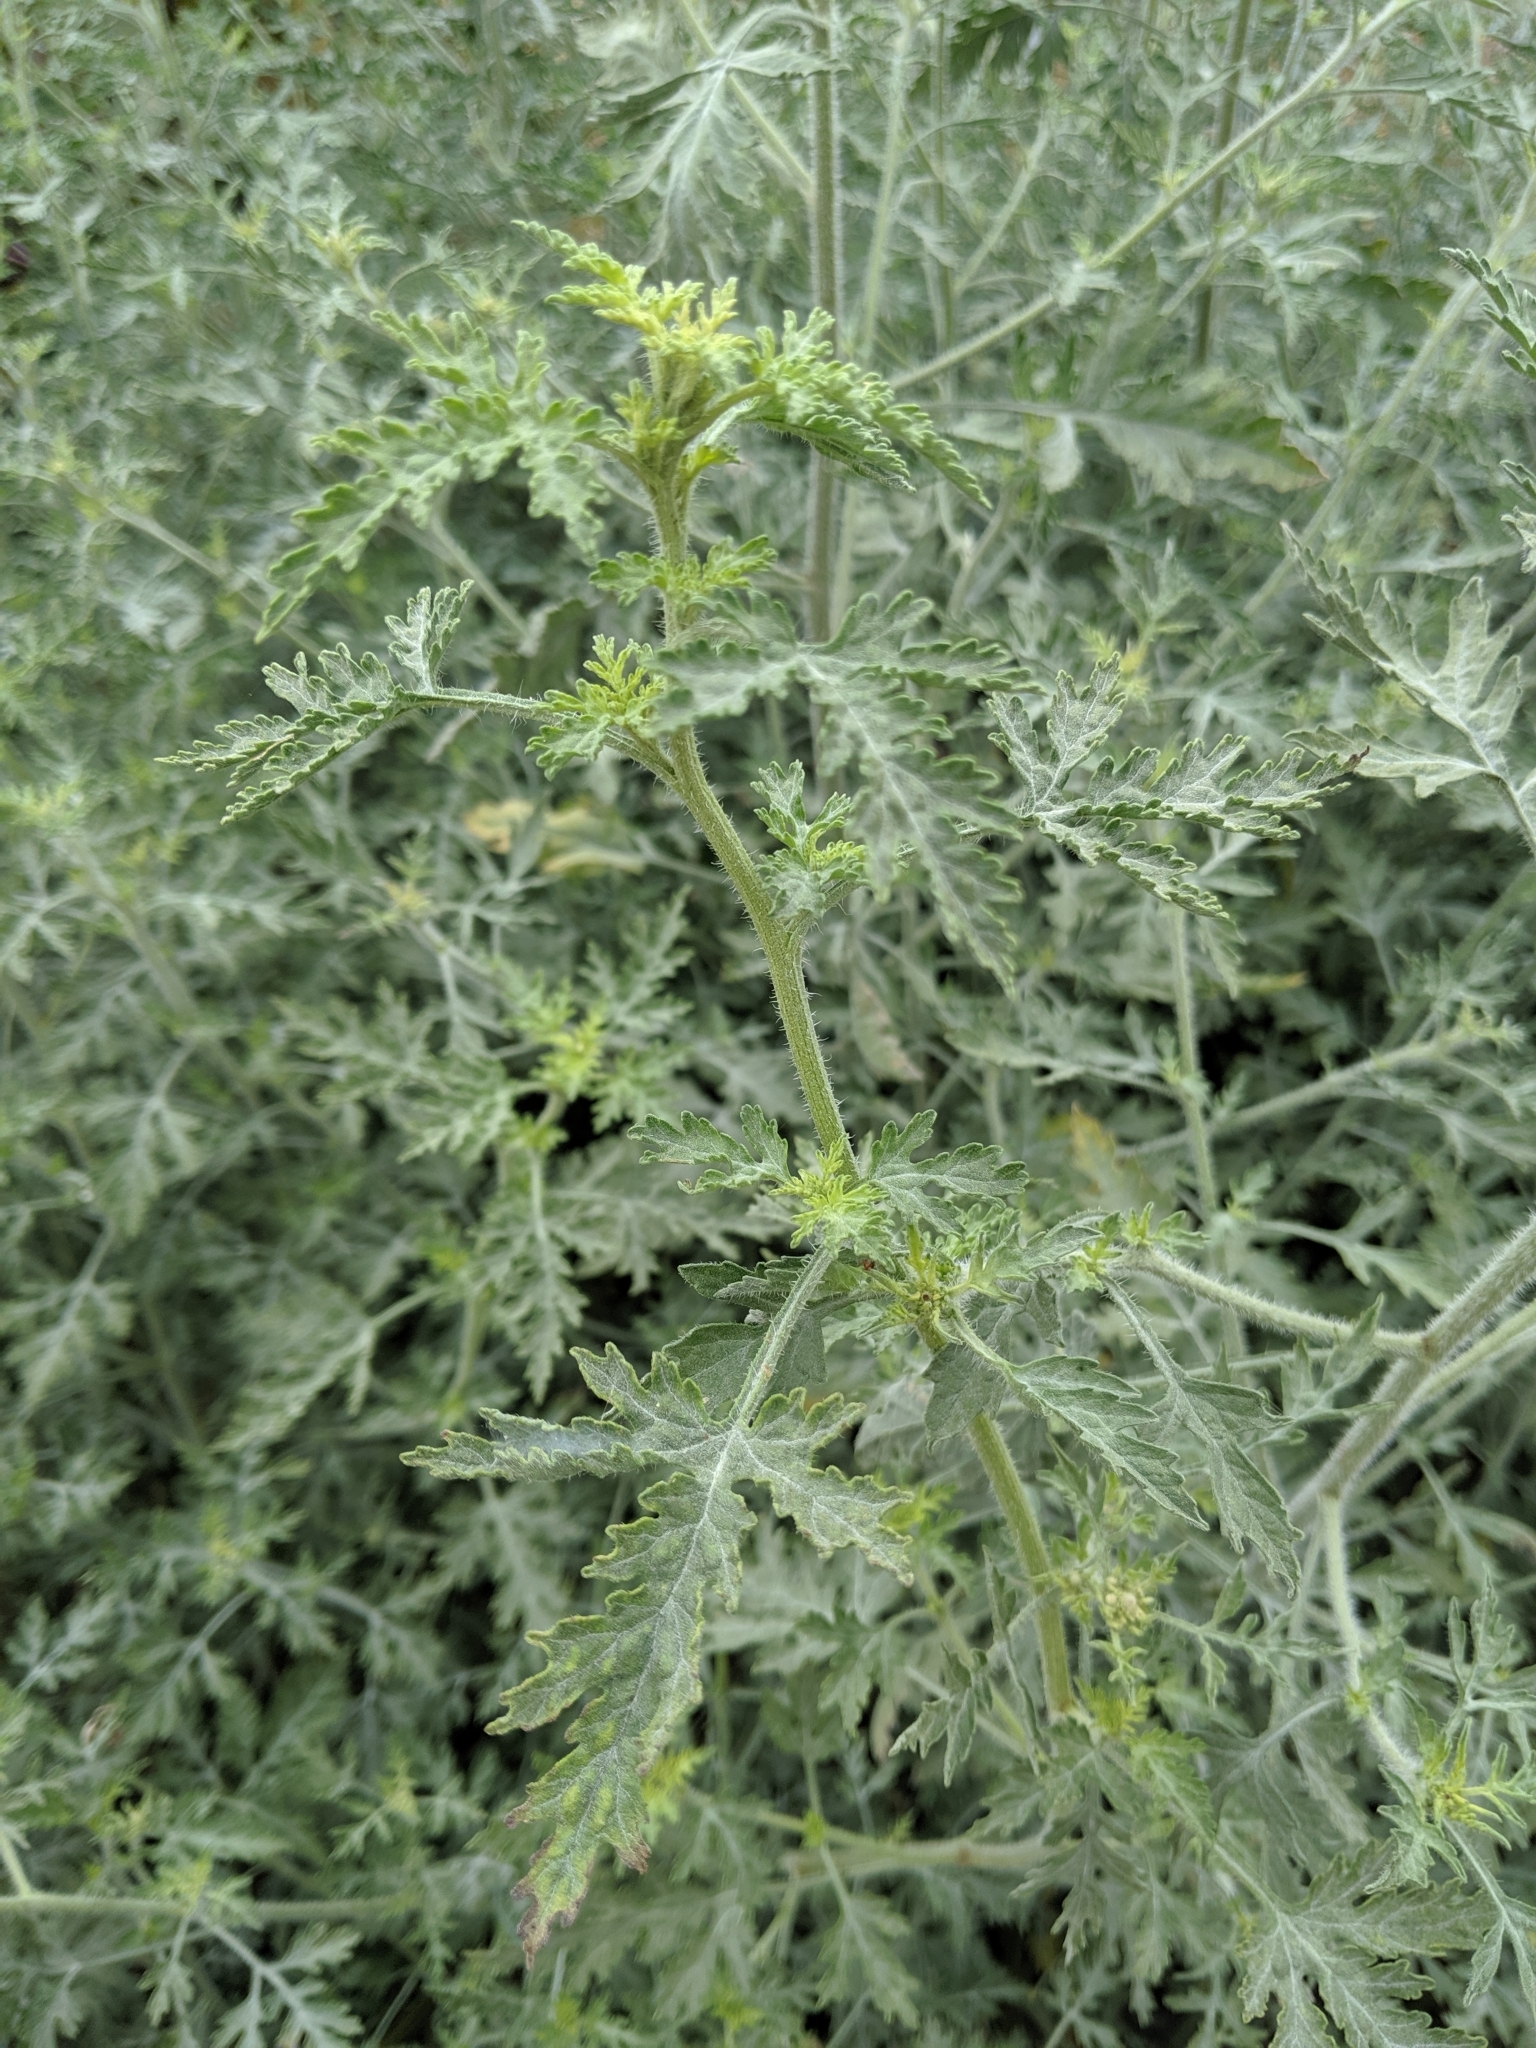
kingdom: Plantae
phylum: Tracheophyta
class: Magnoliopsida
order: Asterales
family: Asteraceae
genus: Ambrosia
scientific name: Ambrosia acanthicarpa
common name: Hooker's bur ragweed
